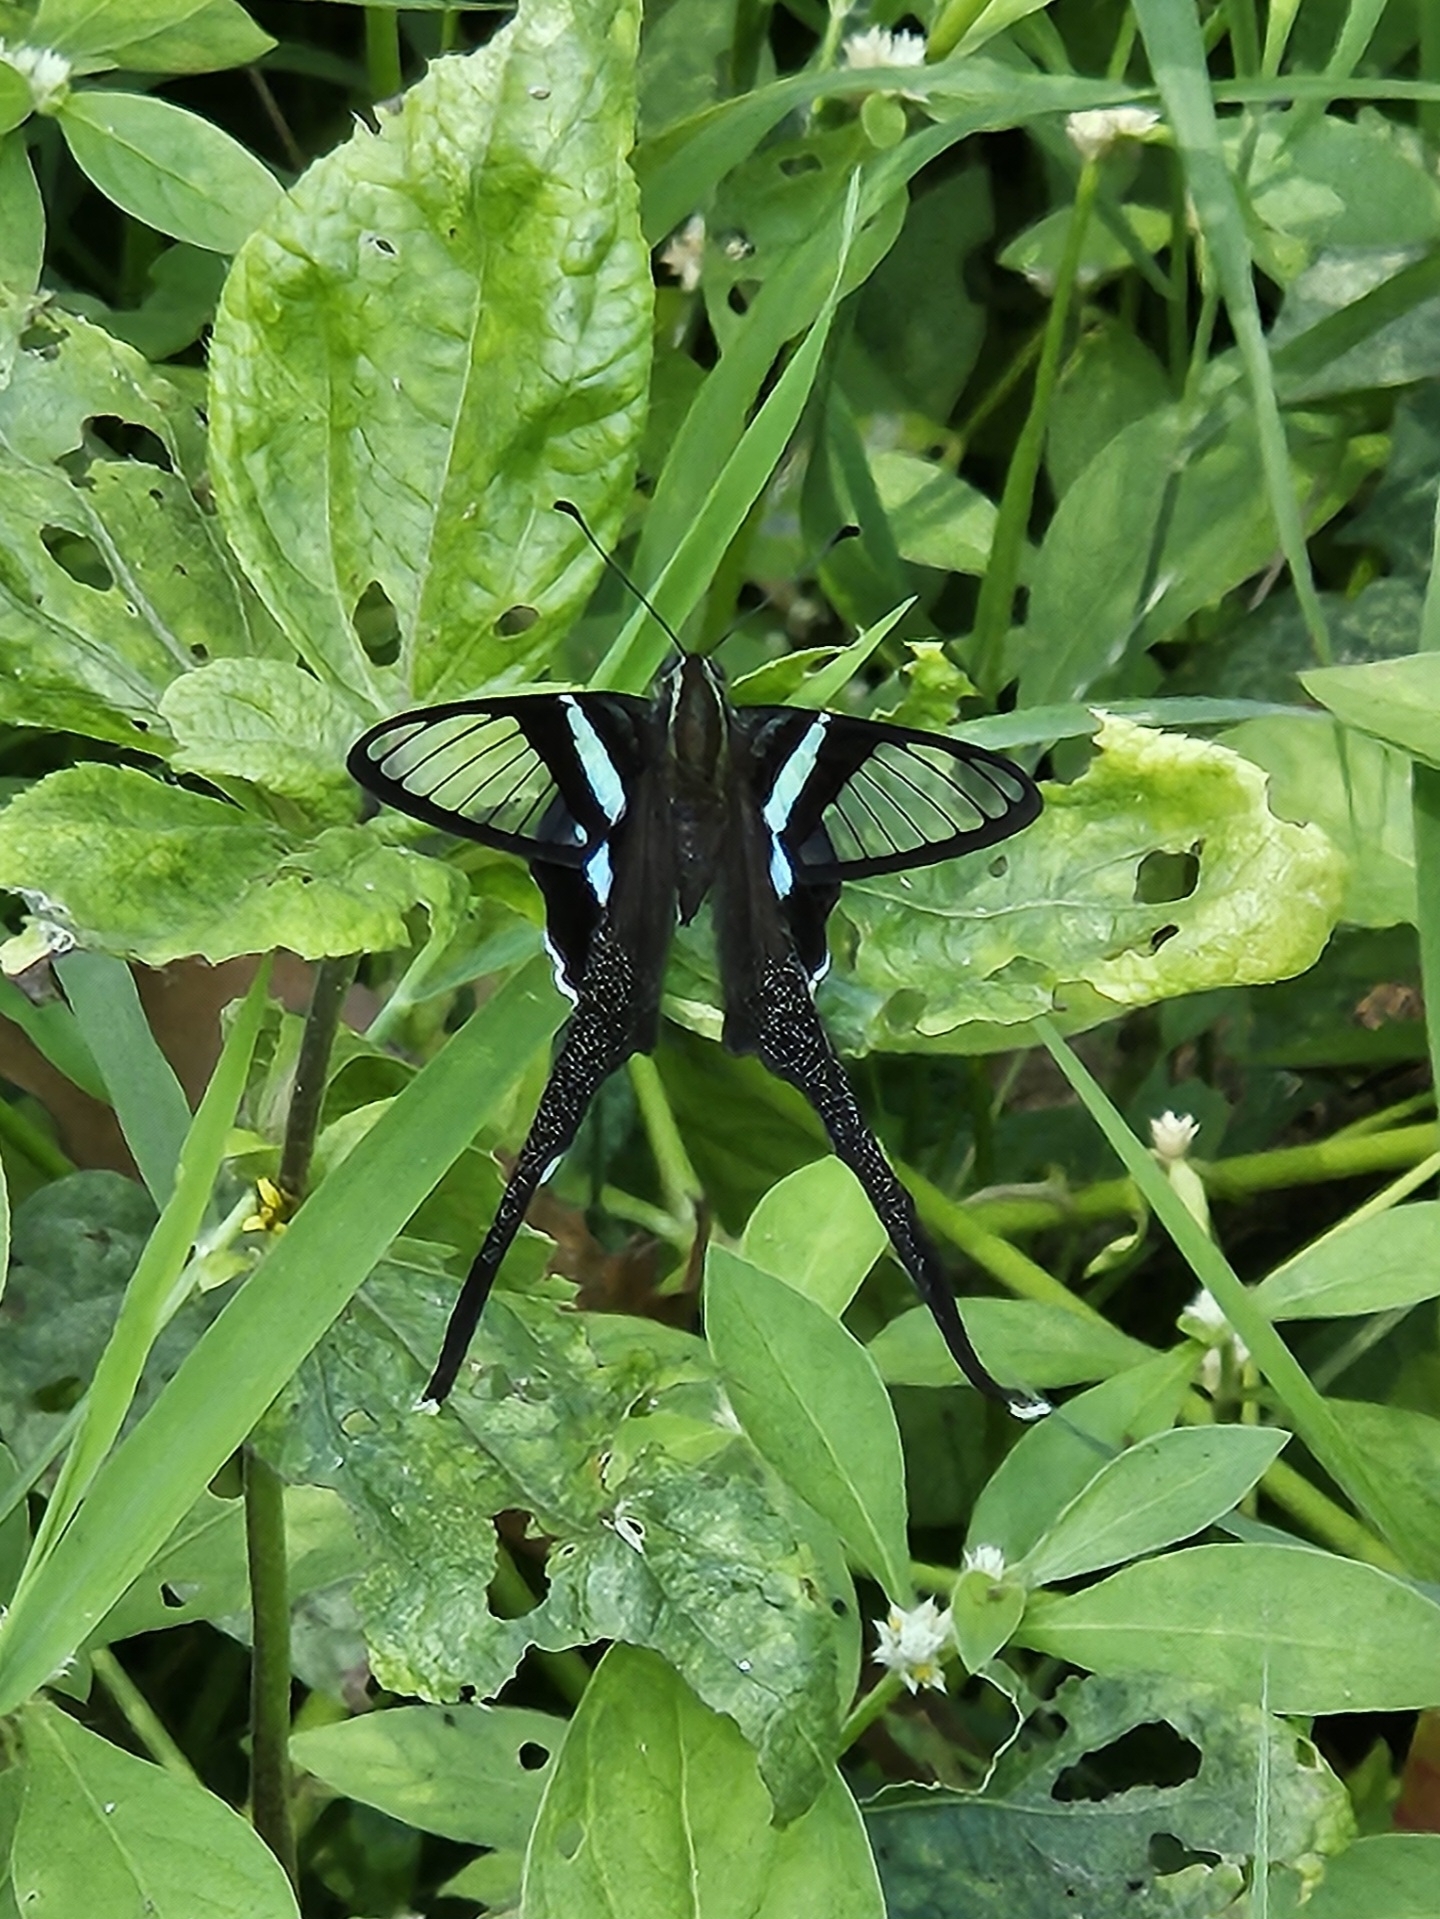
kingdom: Animalia
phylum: Arthropoda
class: Insecta
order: Lepidoptera
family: Papilionidae
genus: Lamproptera
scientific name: Lamproptera meges
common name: Green dragontail
